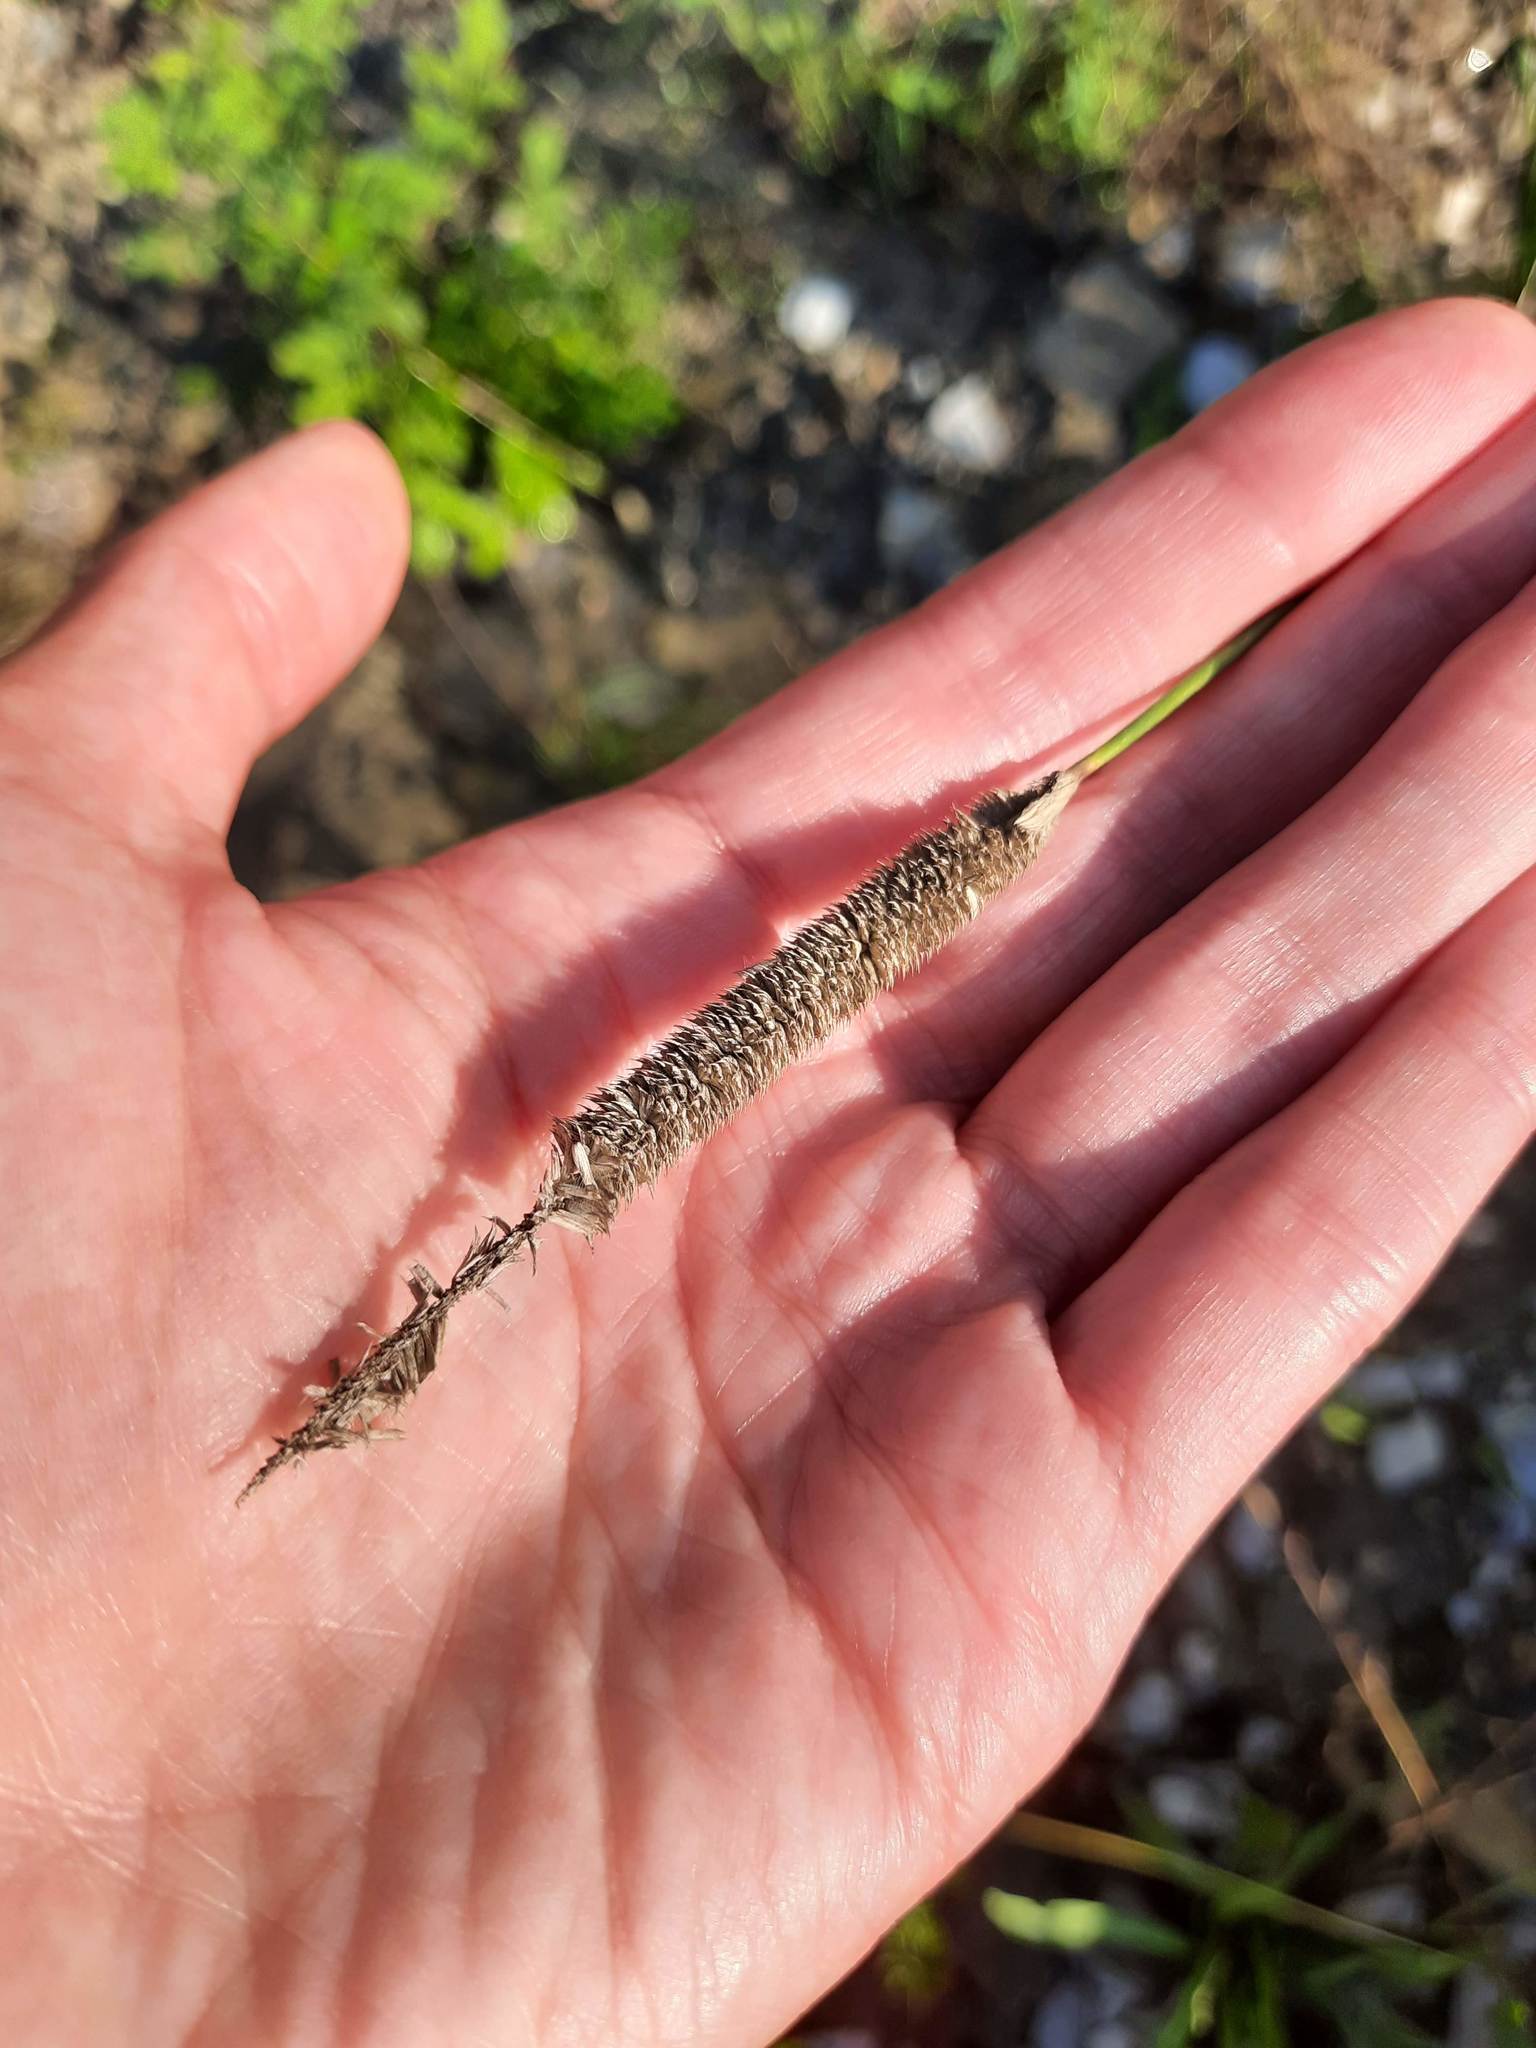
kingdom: Plantae
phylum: Tracheophyta
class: Liliopsida
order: Poales
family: Poaceae
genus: Phleum
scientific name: Phleum pratense
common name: Timothy grass
